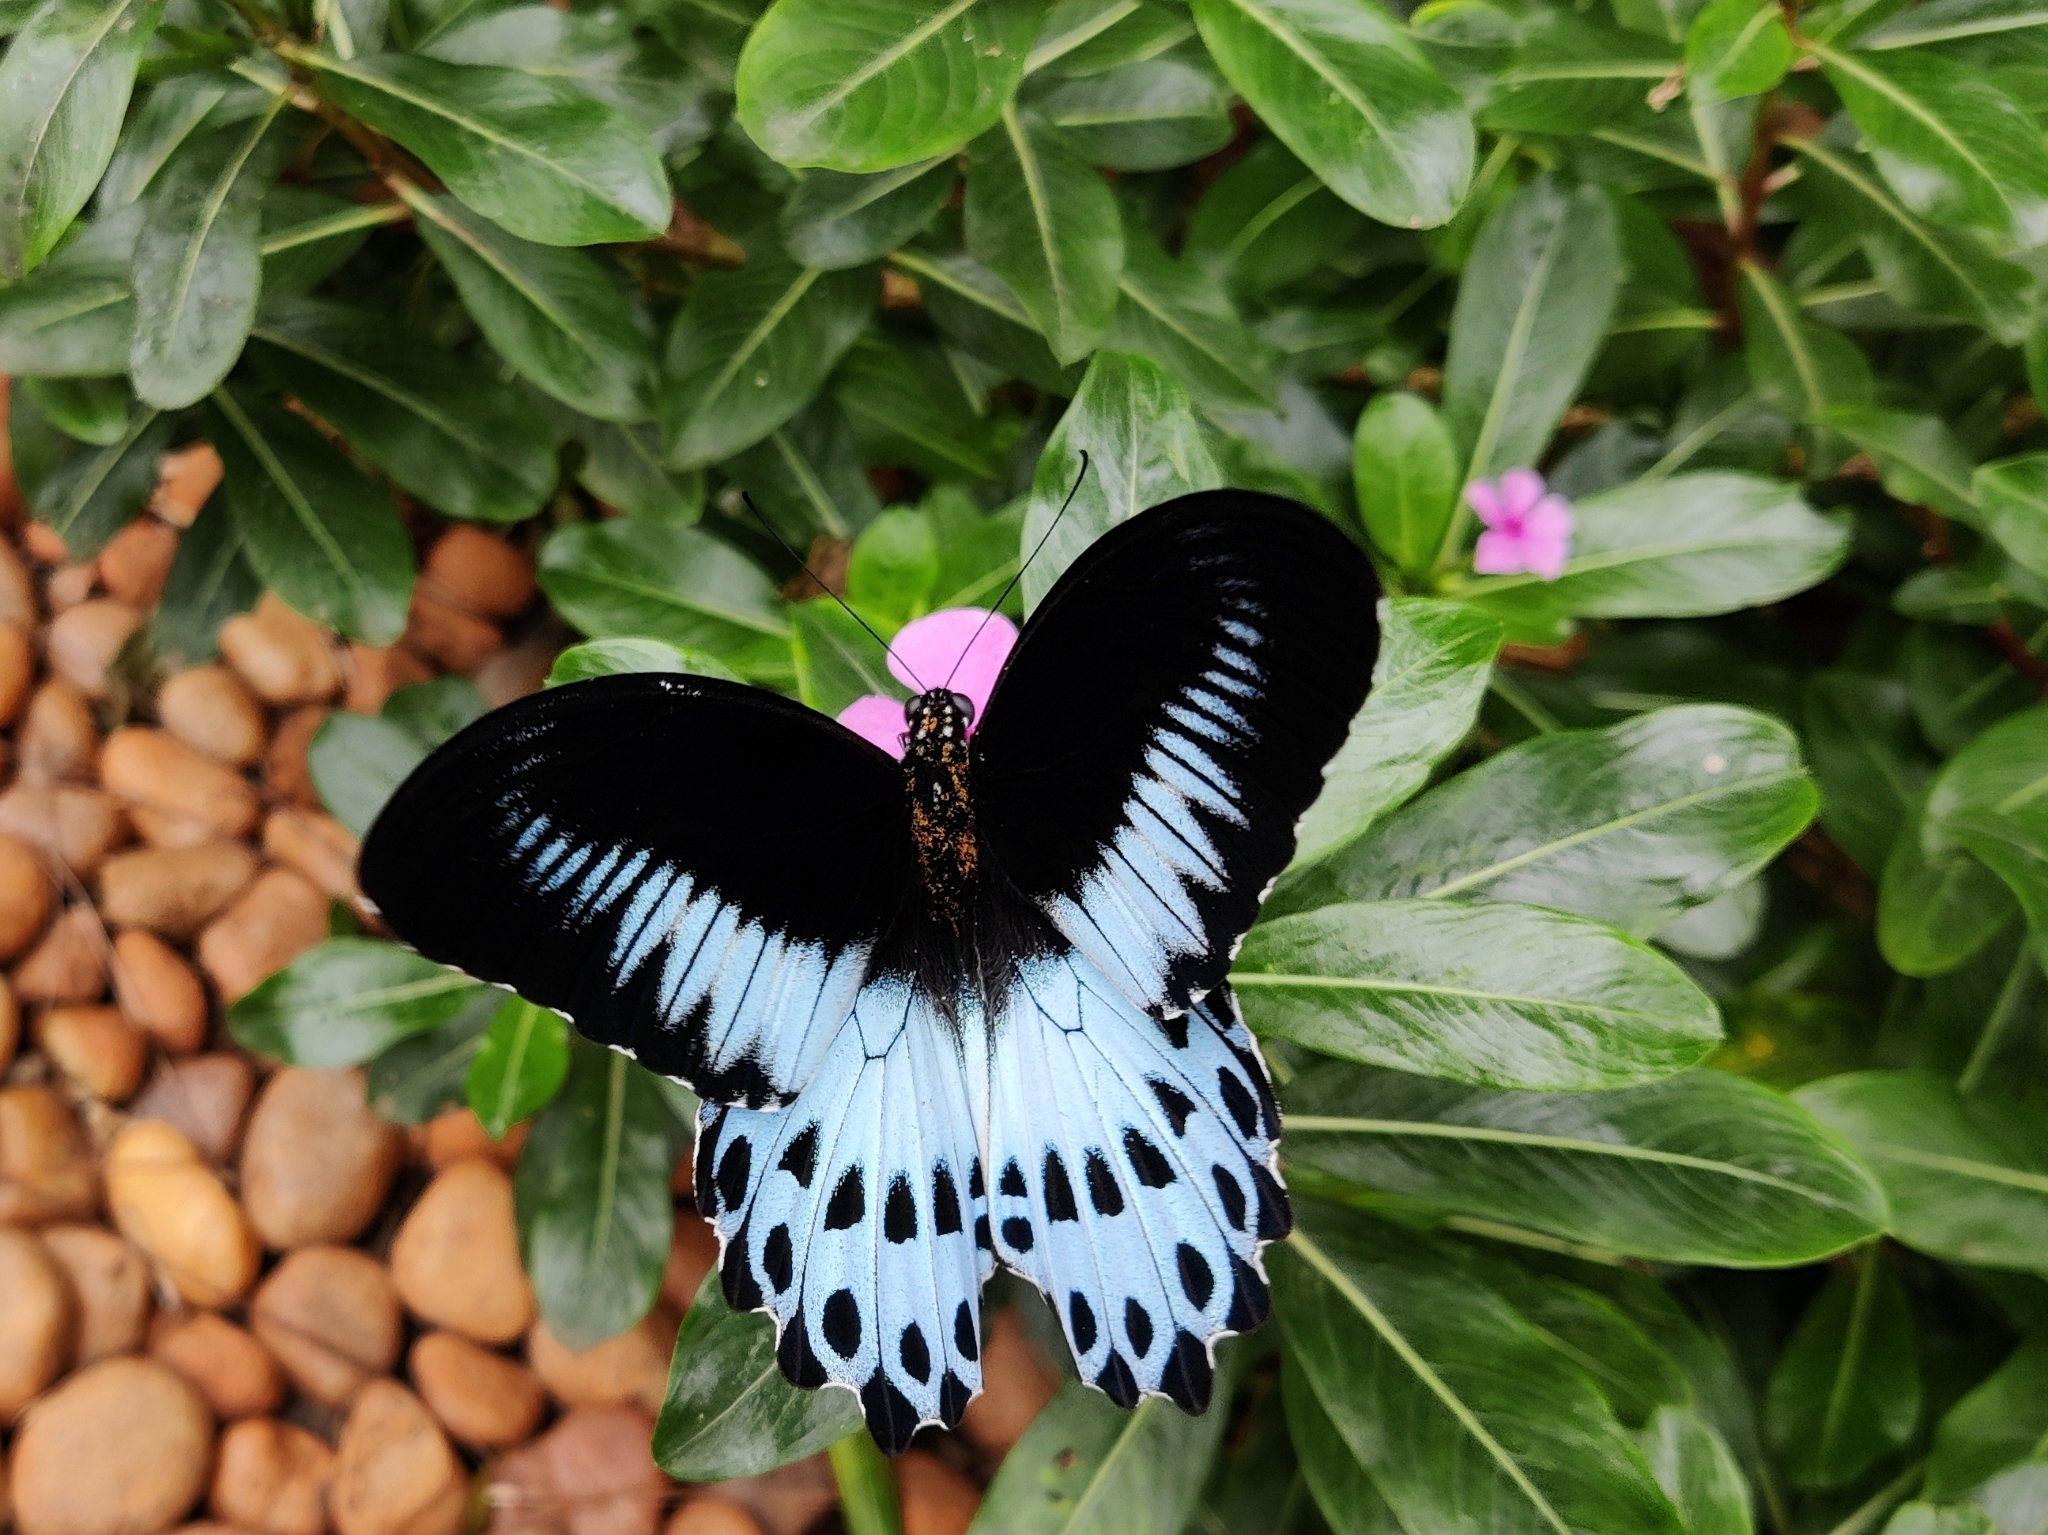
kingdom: Animalia
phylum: Arthropoda
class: Insecta
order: Lepidoptera
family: Papilionidae
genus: Papilio
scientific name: Papilio memnon
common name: Great mormon
